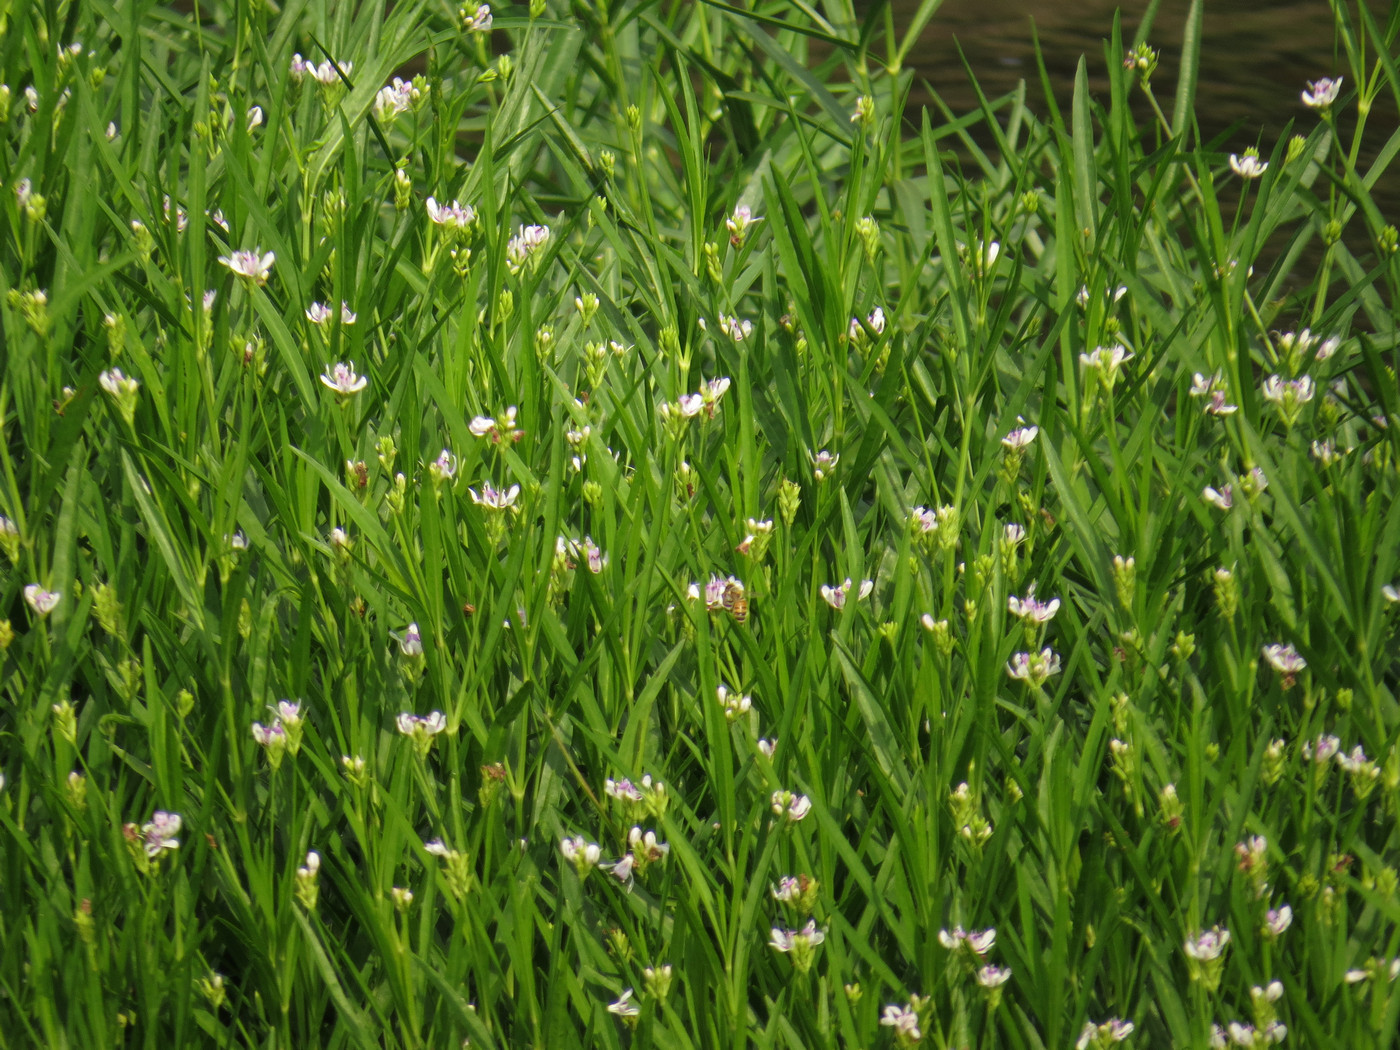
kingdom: Plantae
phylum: Tracheophyta
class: Magnoliopsida
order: Lamiales
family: Acanthaceae
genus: Dianthera
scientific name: Dianthera americana
